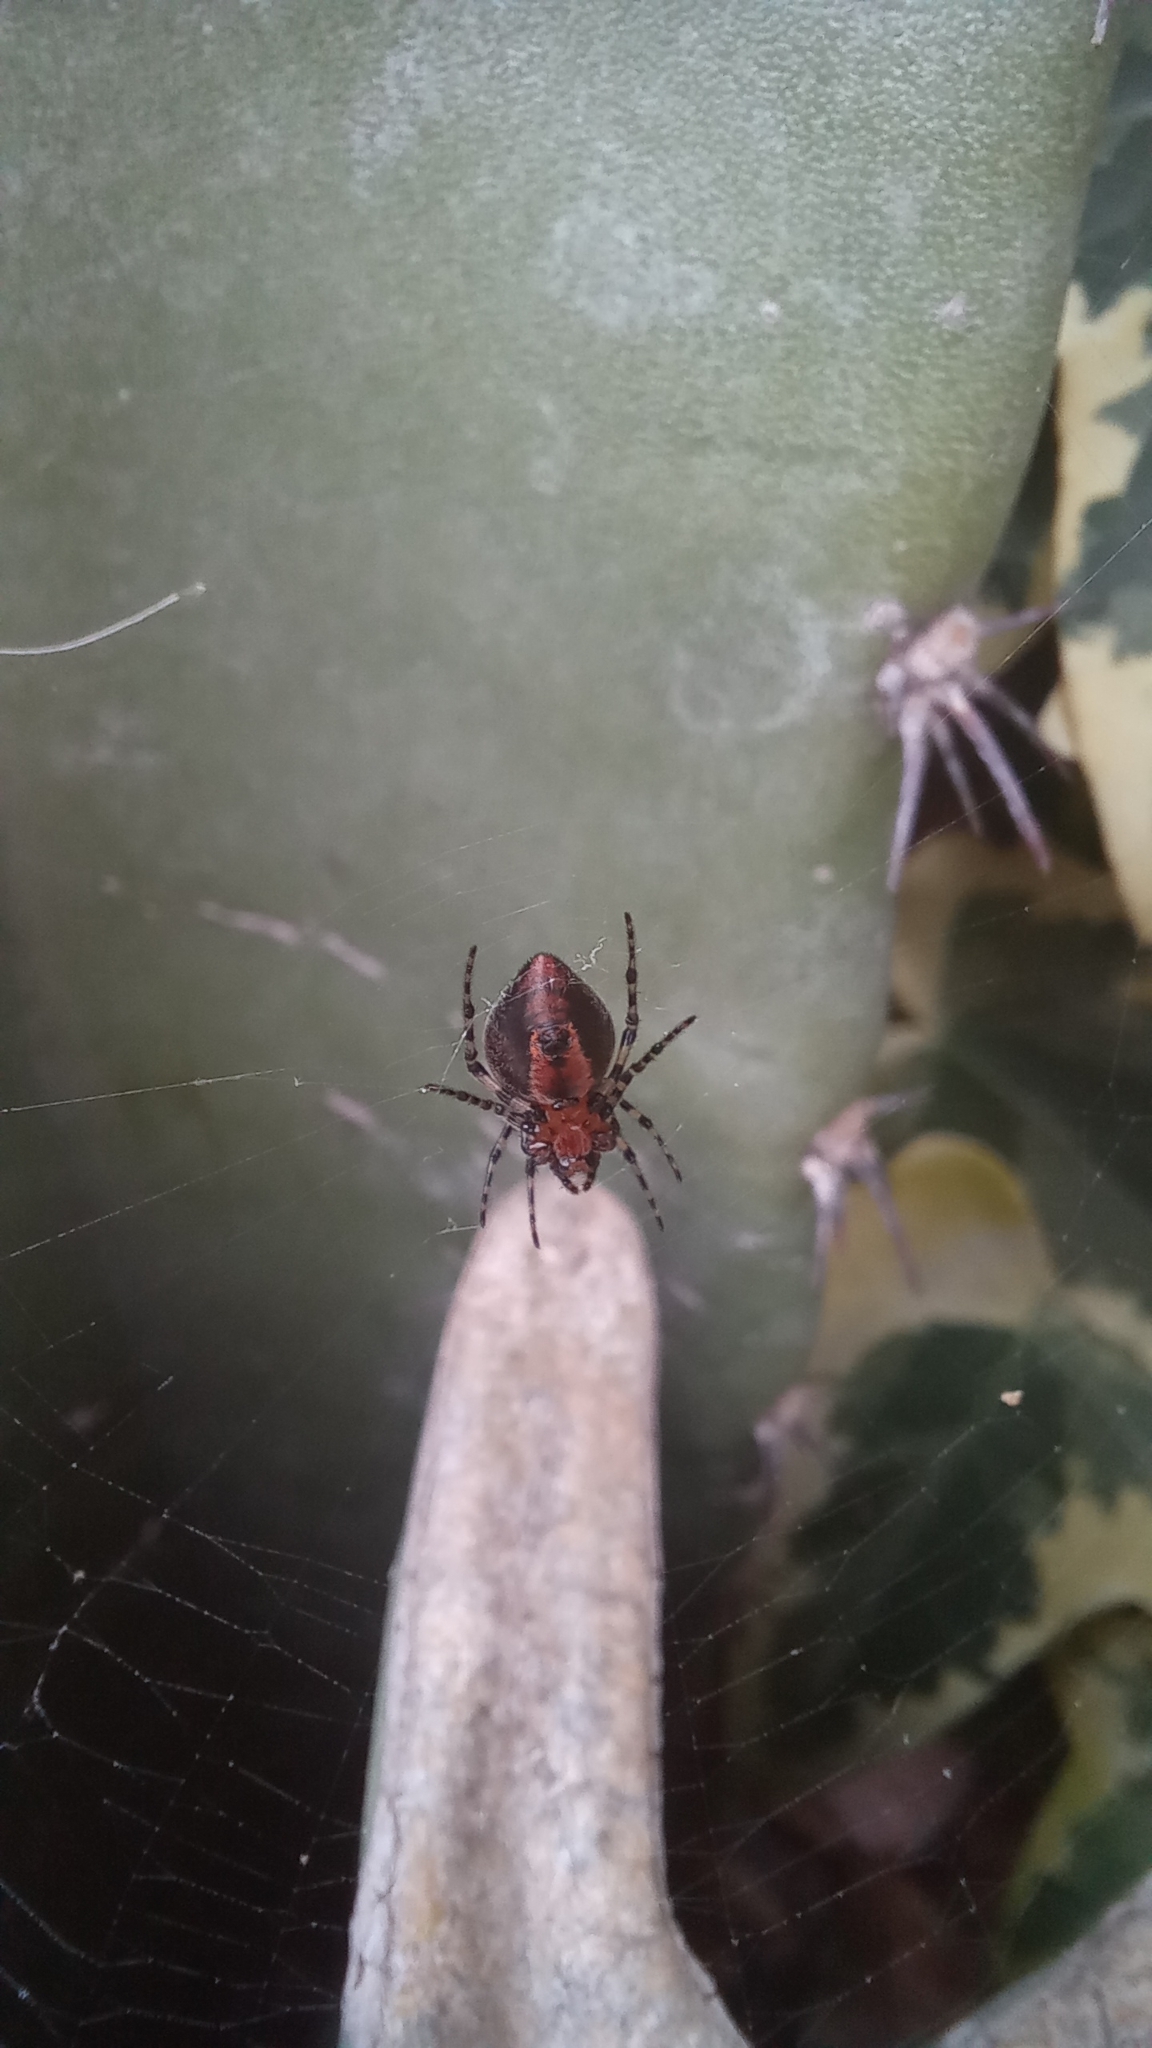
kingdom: Animalia
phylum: Arthropoda
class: Arachnida
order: Araneae
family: Araneidae
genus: Alpaida
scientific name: Alpaida gallardoi
